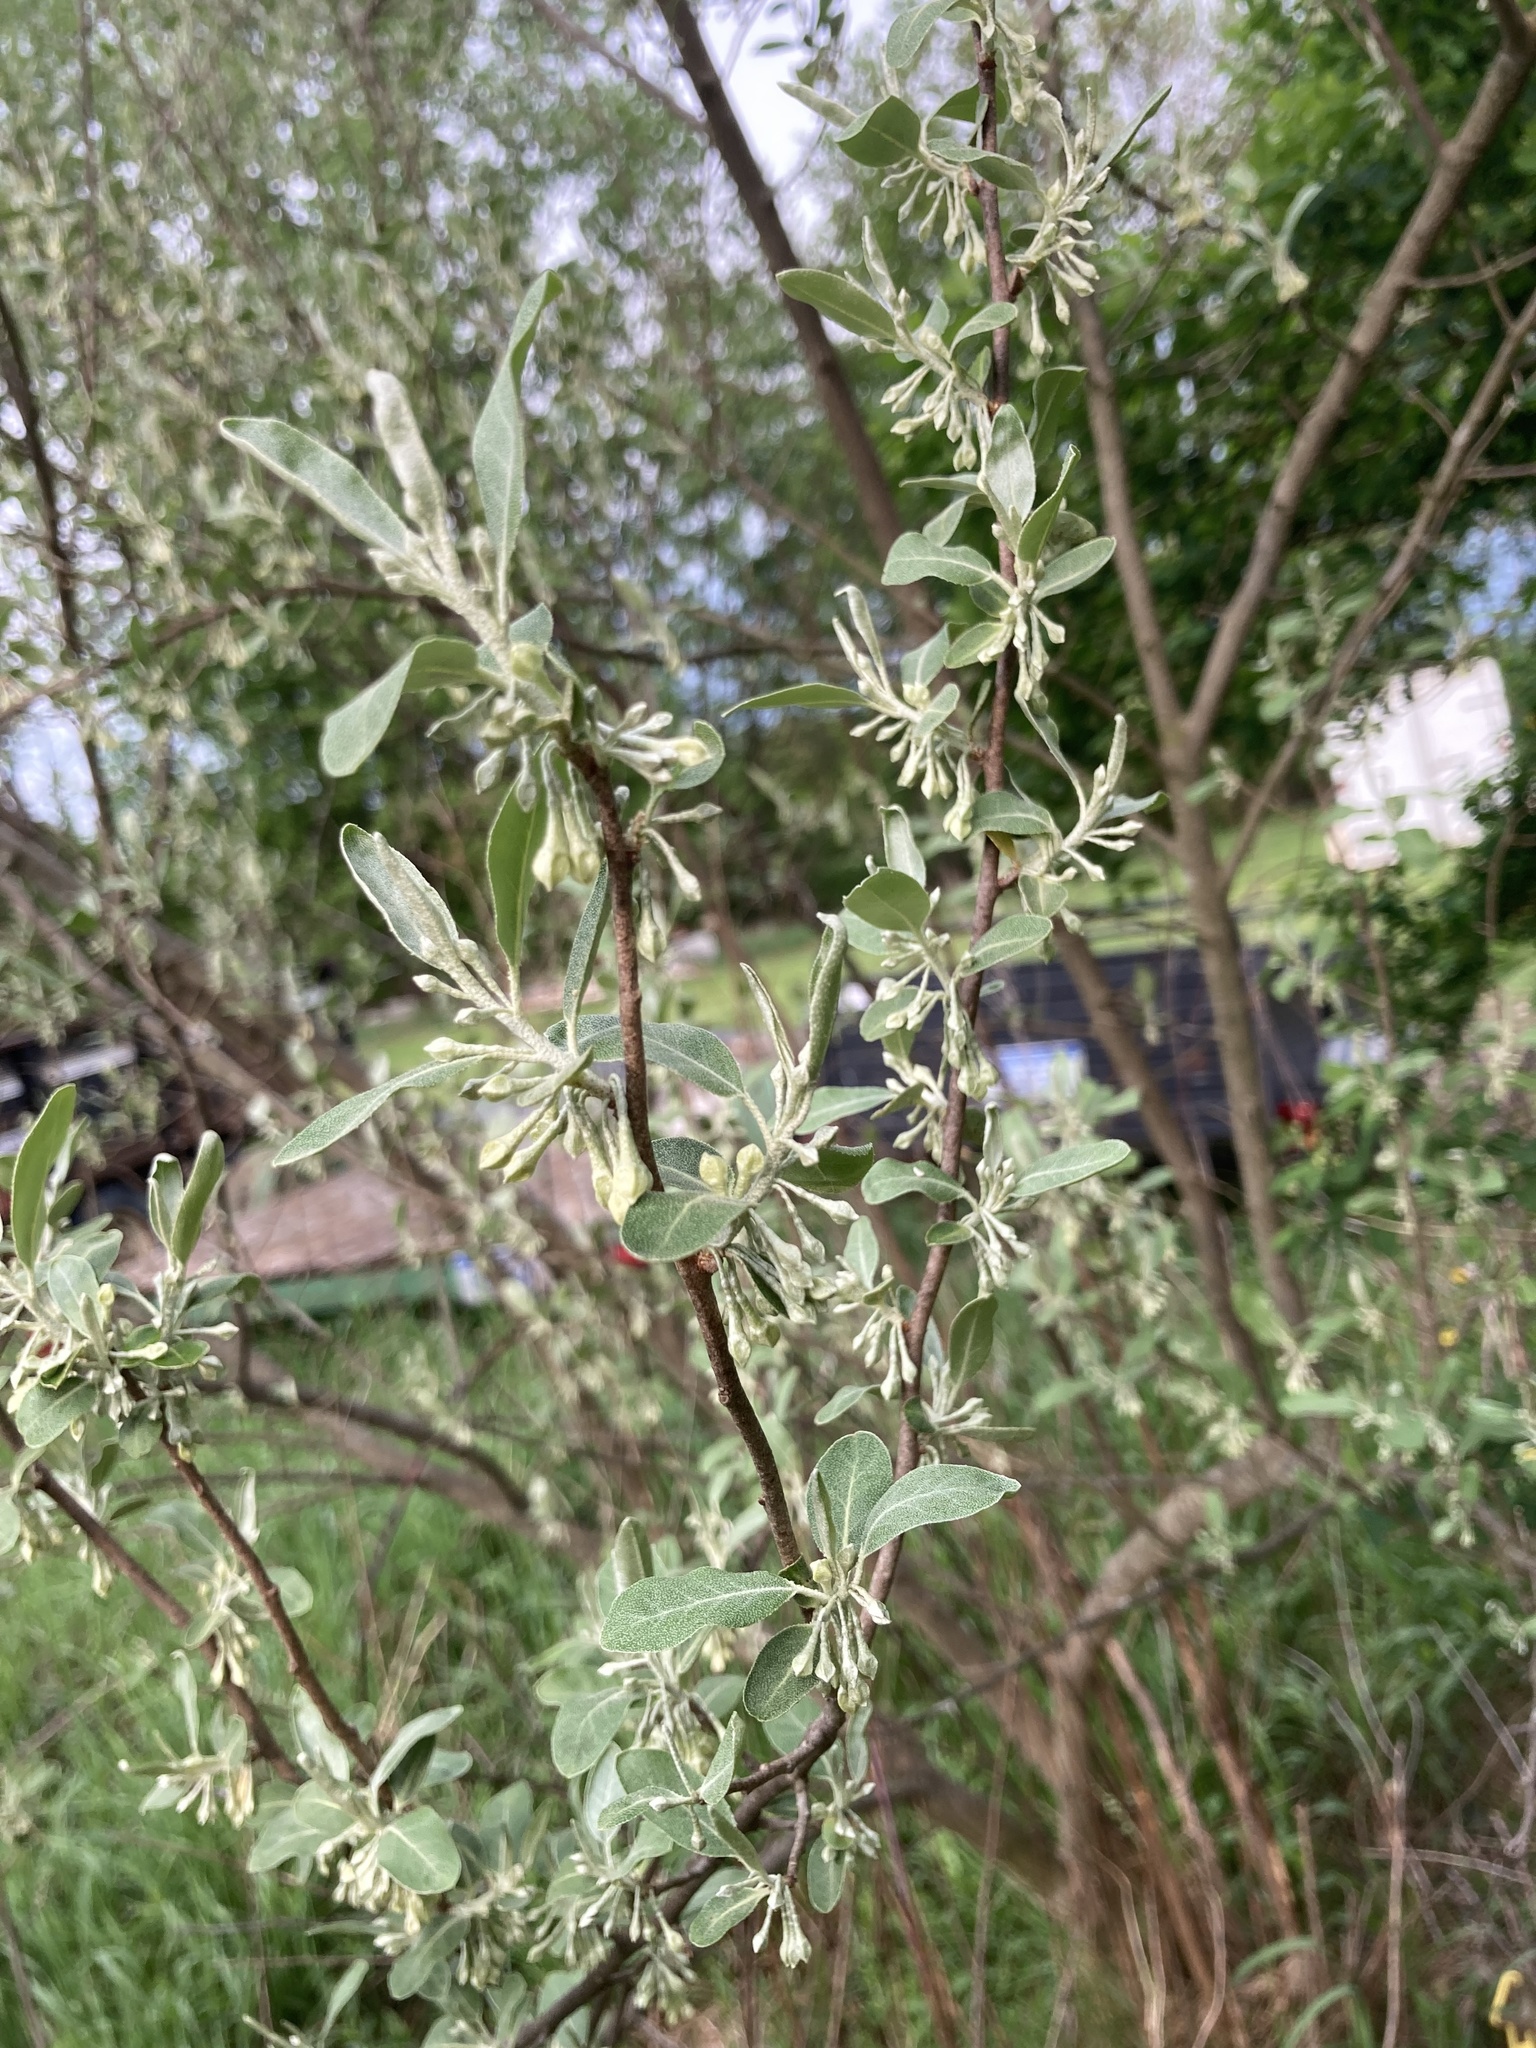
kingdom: Plantae
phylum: Tracheophyta
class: Magnoliopsida
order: Rosales
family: Elaeagnaceae
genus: Elaeagnus
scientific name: Elaeagnus umbellata
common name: Autumn olive
